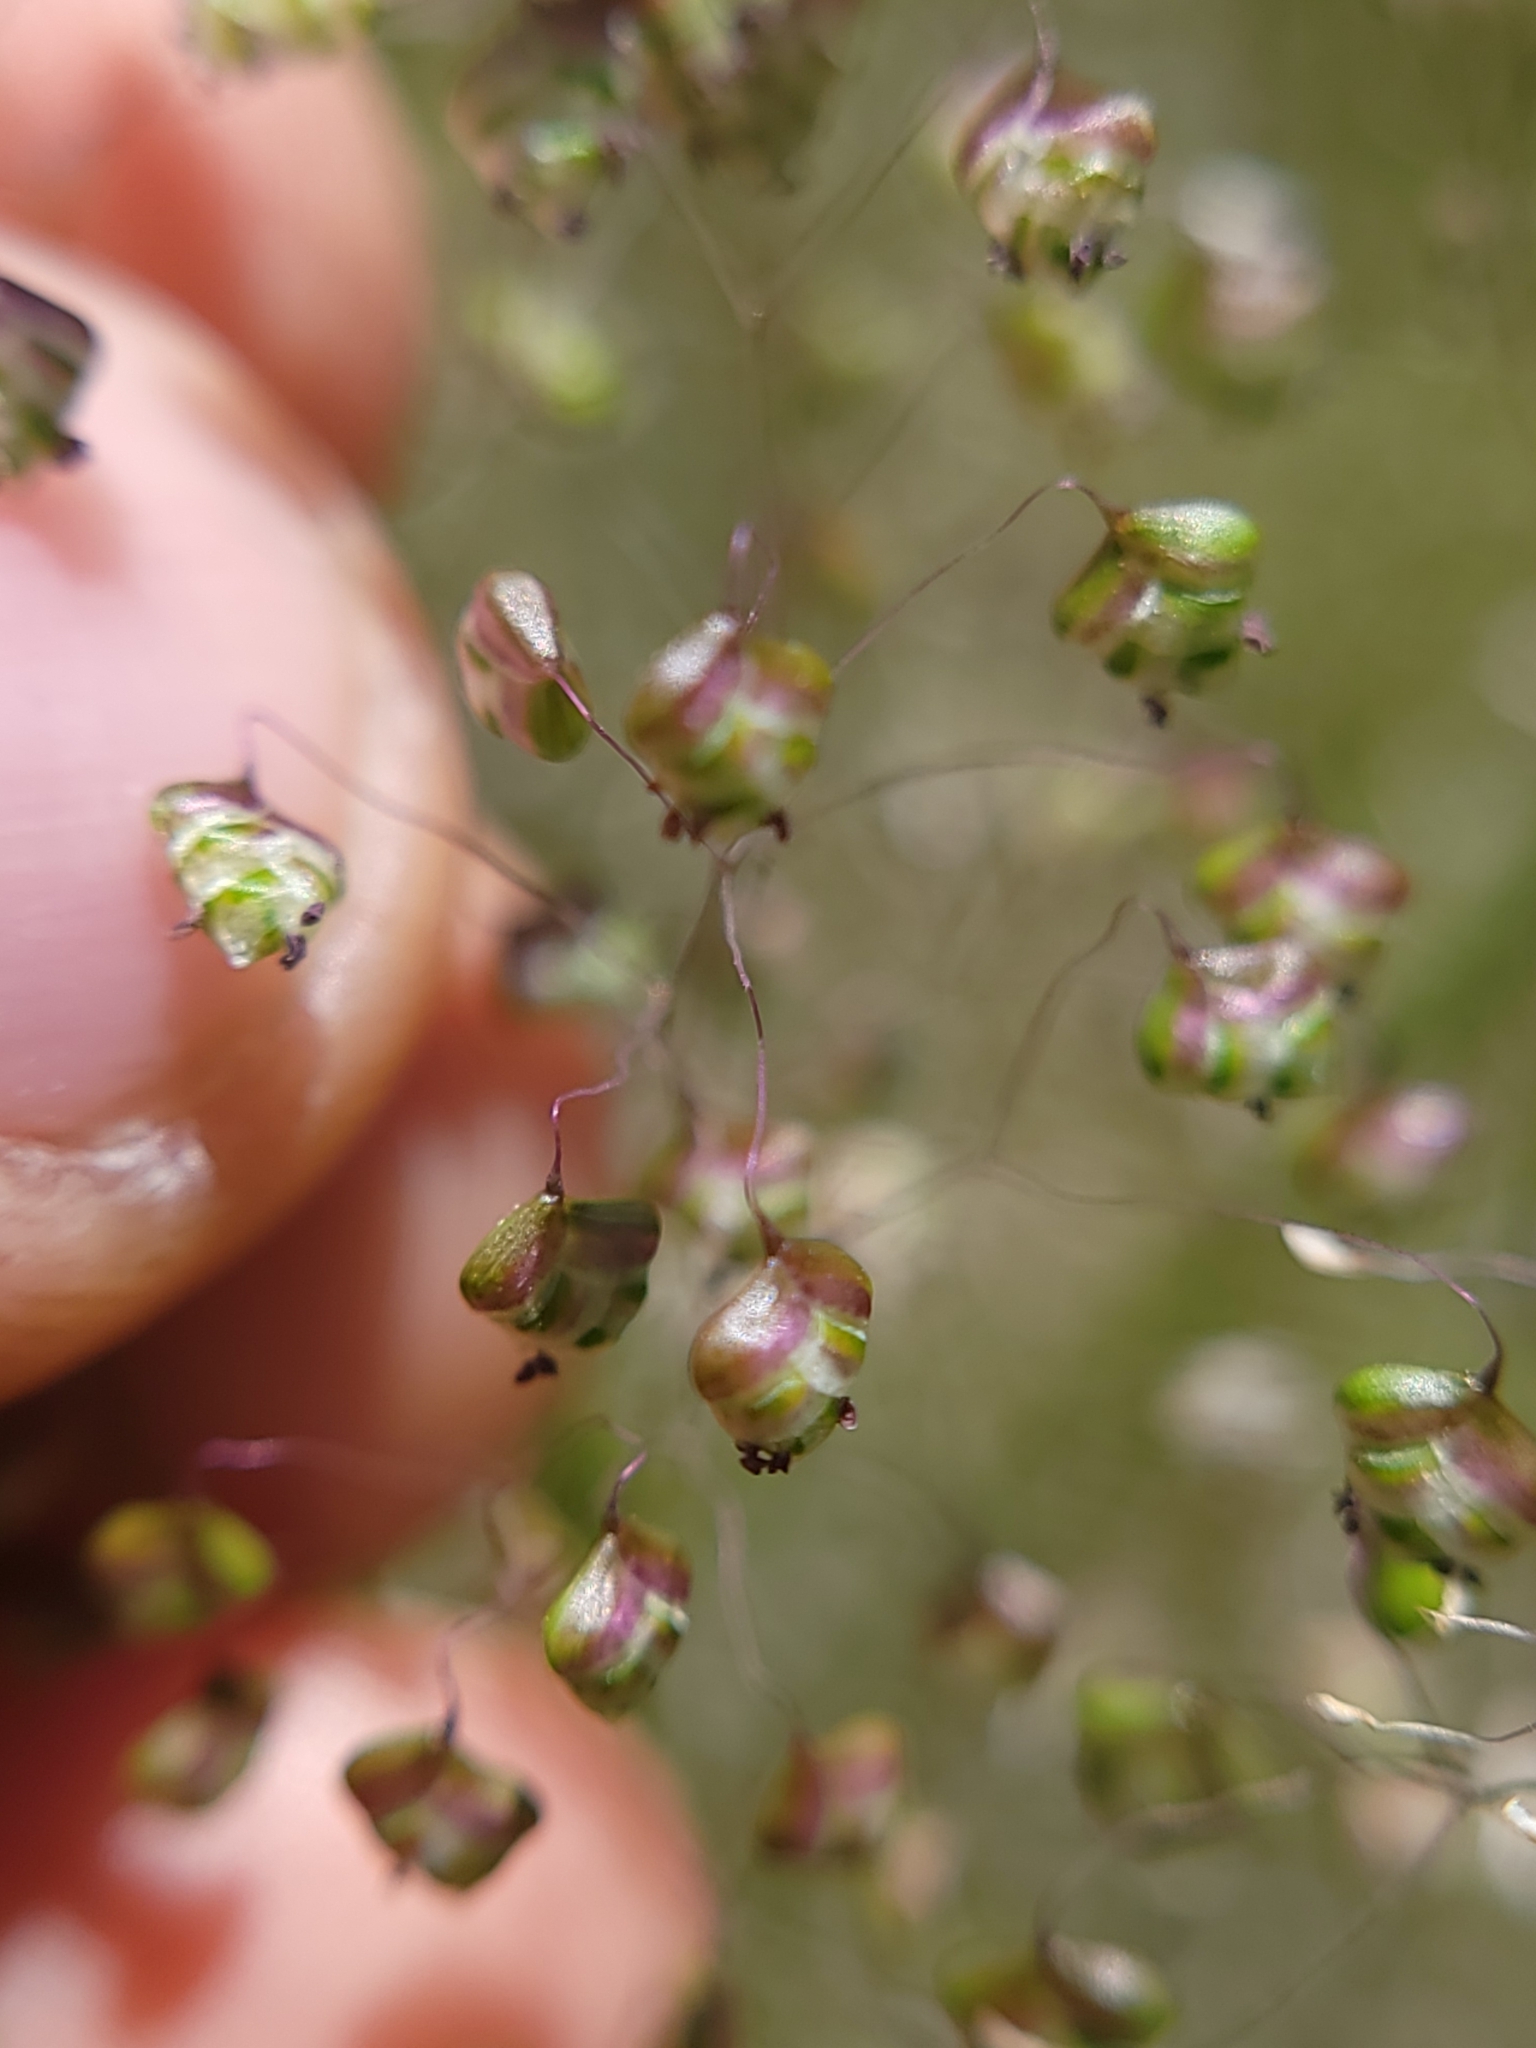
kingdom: Plantae
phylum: Tracheophyta
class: Liliopsida
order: Poales
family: Poaceae
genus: Briza
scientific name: Briza minor
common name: Lesser quaking-grass
